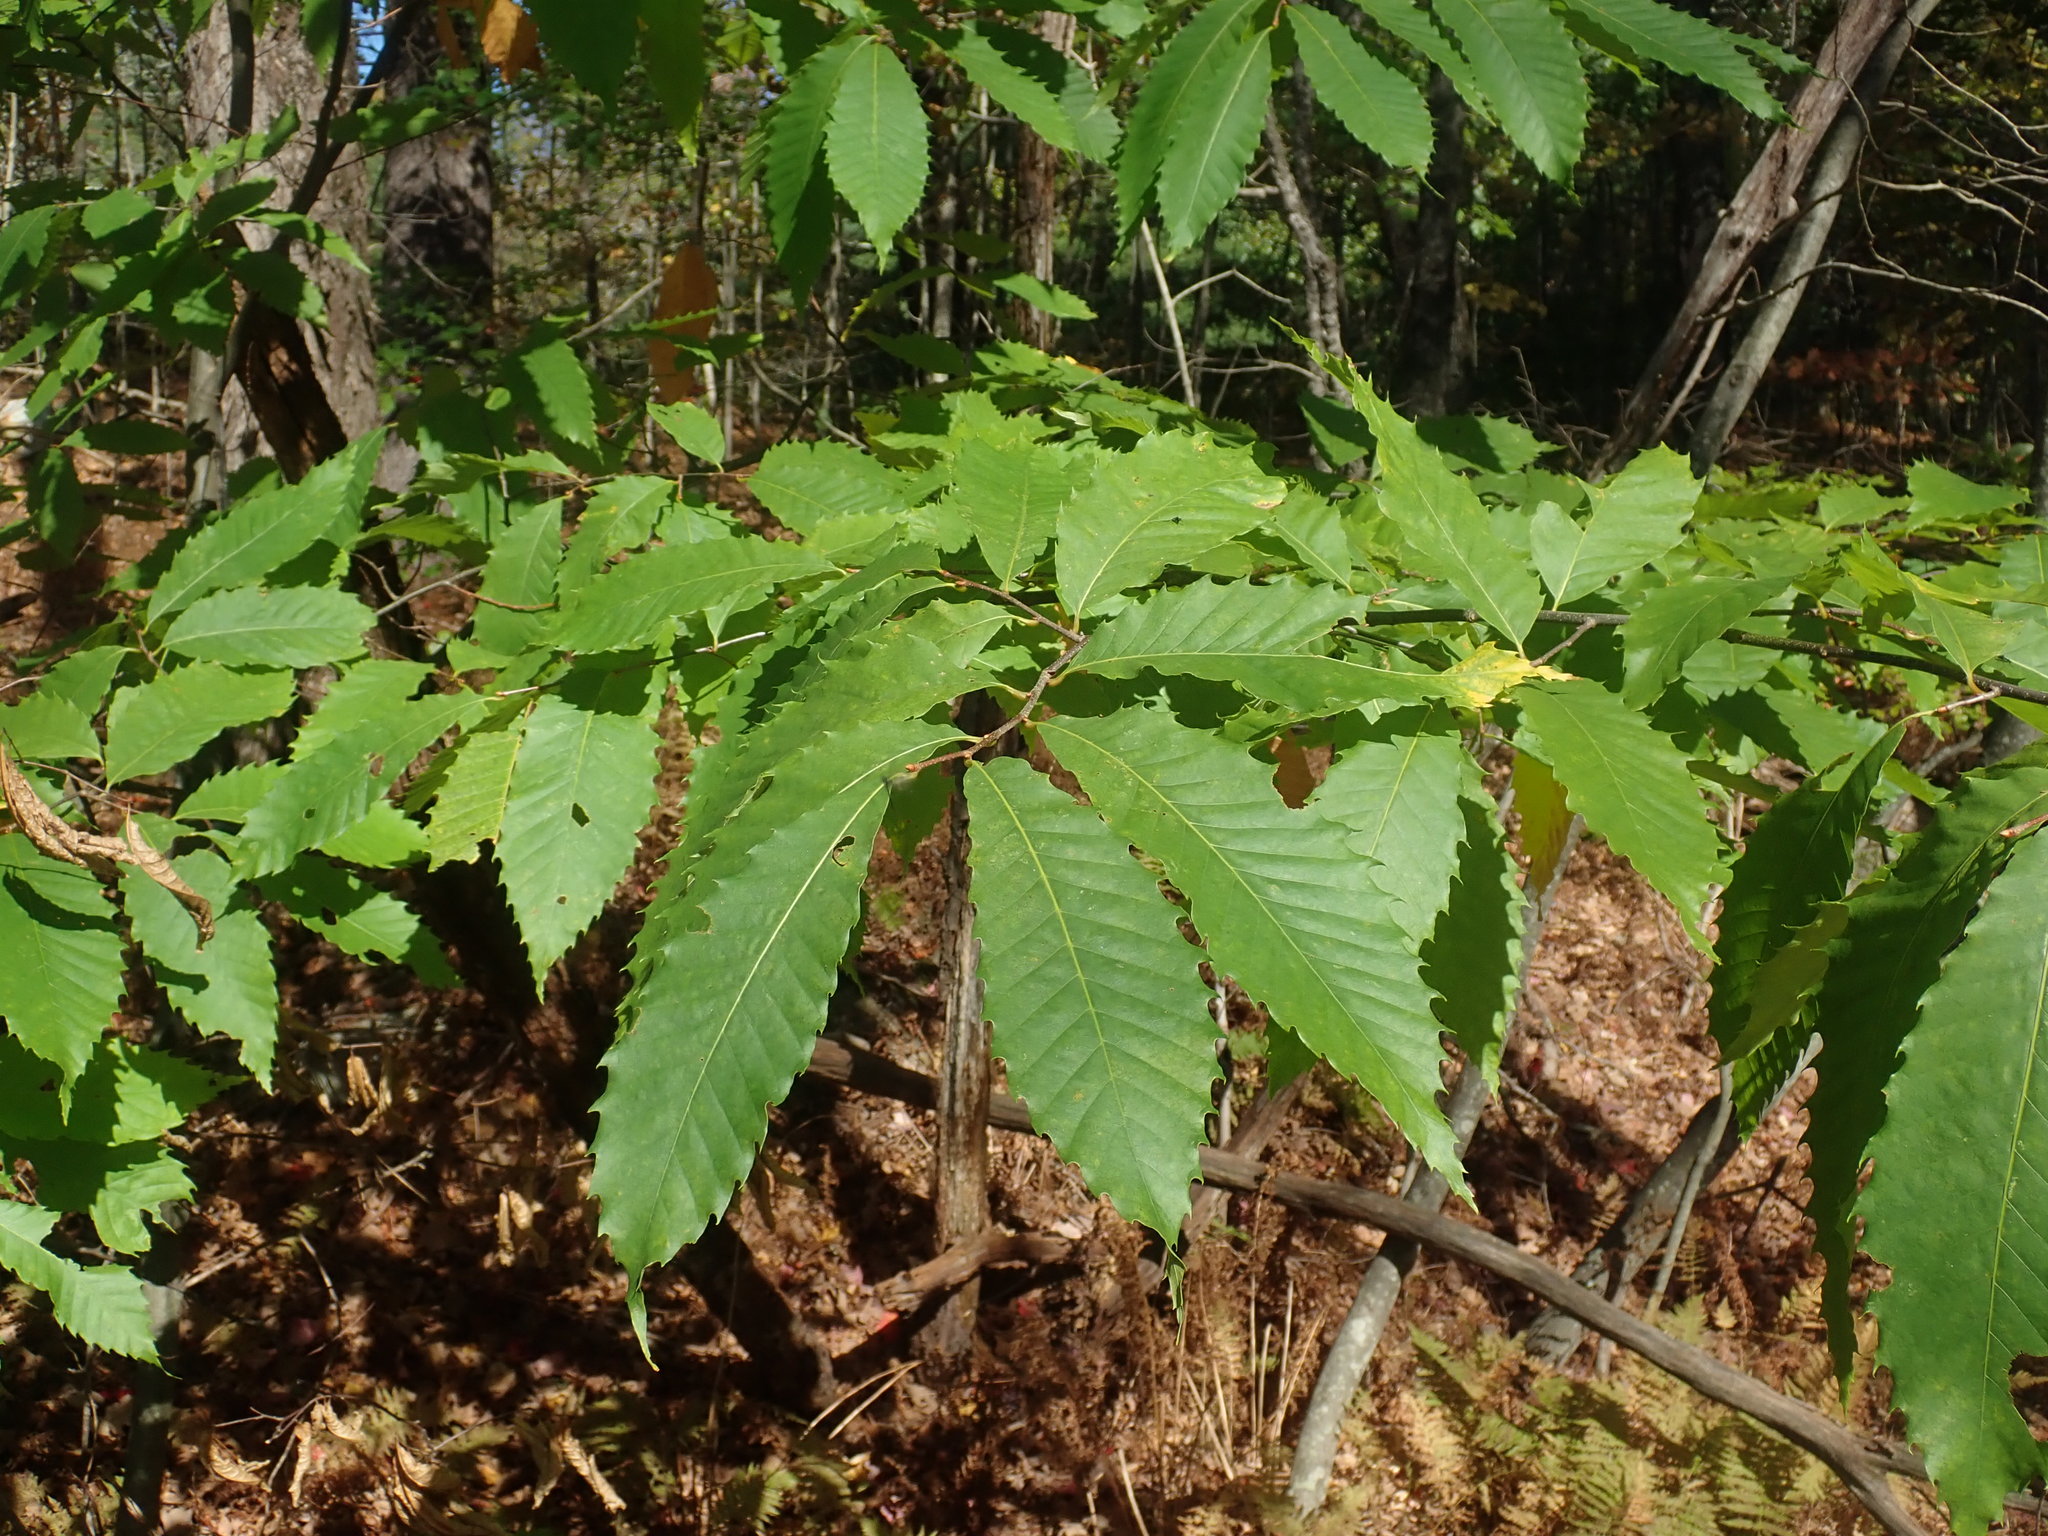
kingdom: Plantae
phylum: Tracheophyta
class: Magnoliopsida
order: Fagales
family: Fagaceae
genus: Castanea
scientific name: Castanea dentata
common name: American chestnut
